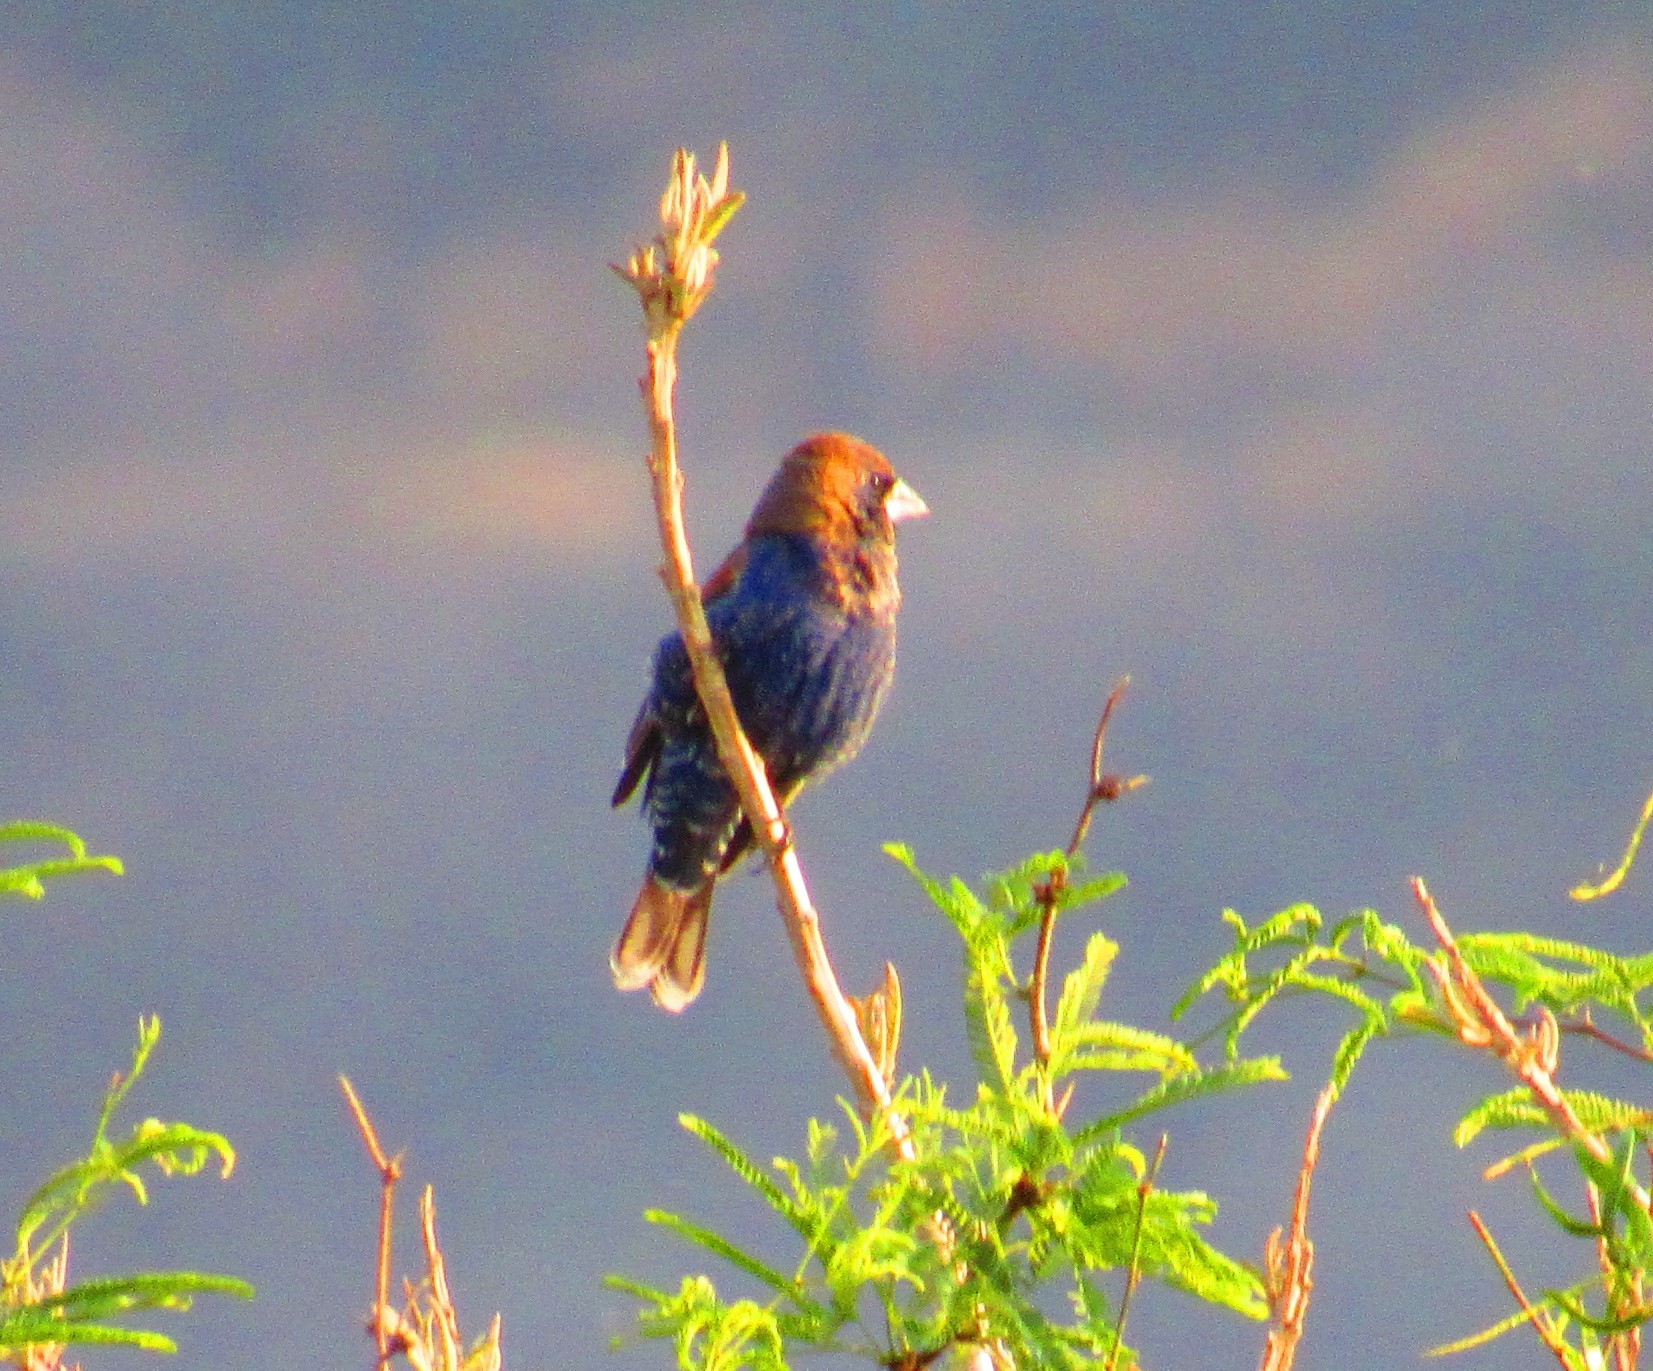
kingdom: Animalia
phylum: Chordata
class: Aves
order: Passeriformes
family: Cardinalidae
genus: Passerina
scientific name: Passerina caerulea
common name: Blue grosbeak
